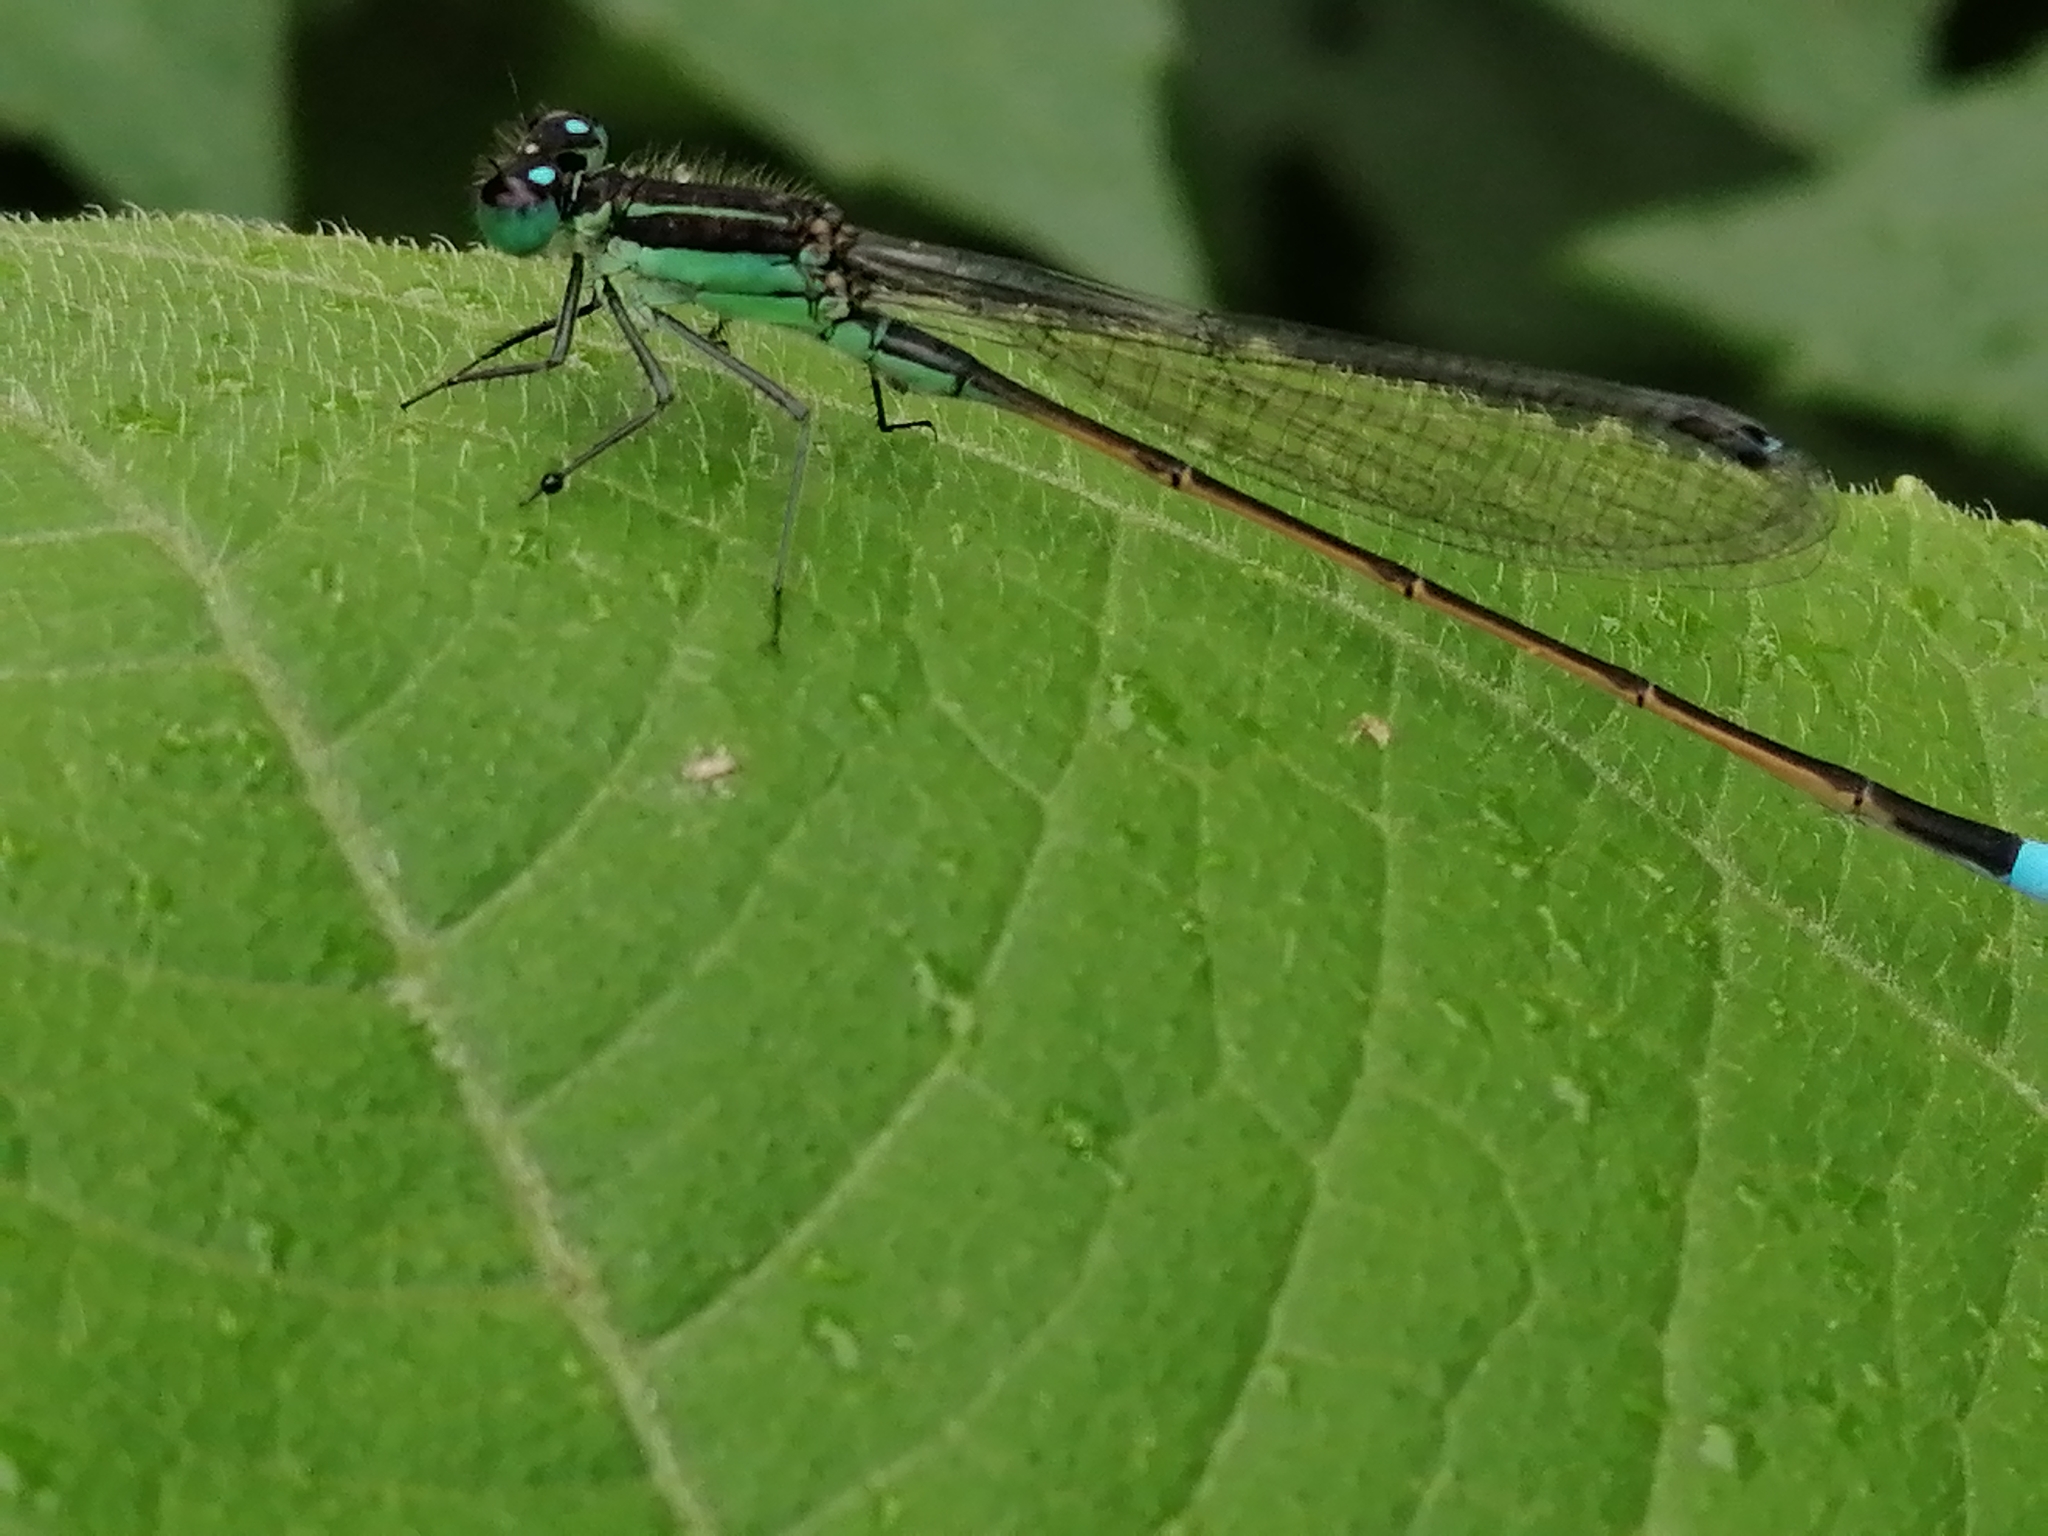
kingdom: Animalia
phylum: Arthropoda
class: Insecta
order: Odonata
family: Coenagrionidae
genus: Ischnura
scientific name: Ischnura ramburii
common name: Rambur's forktail
